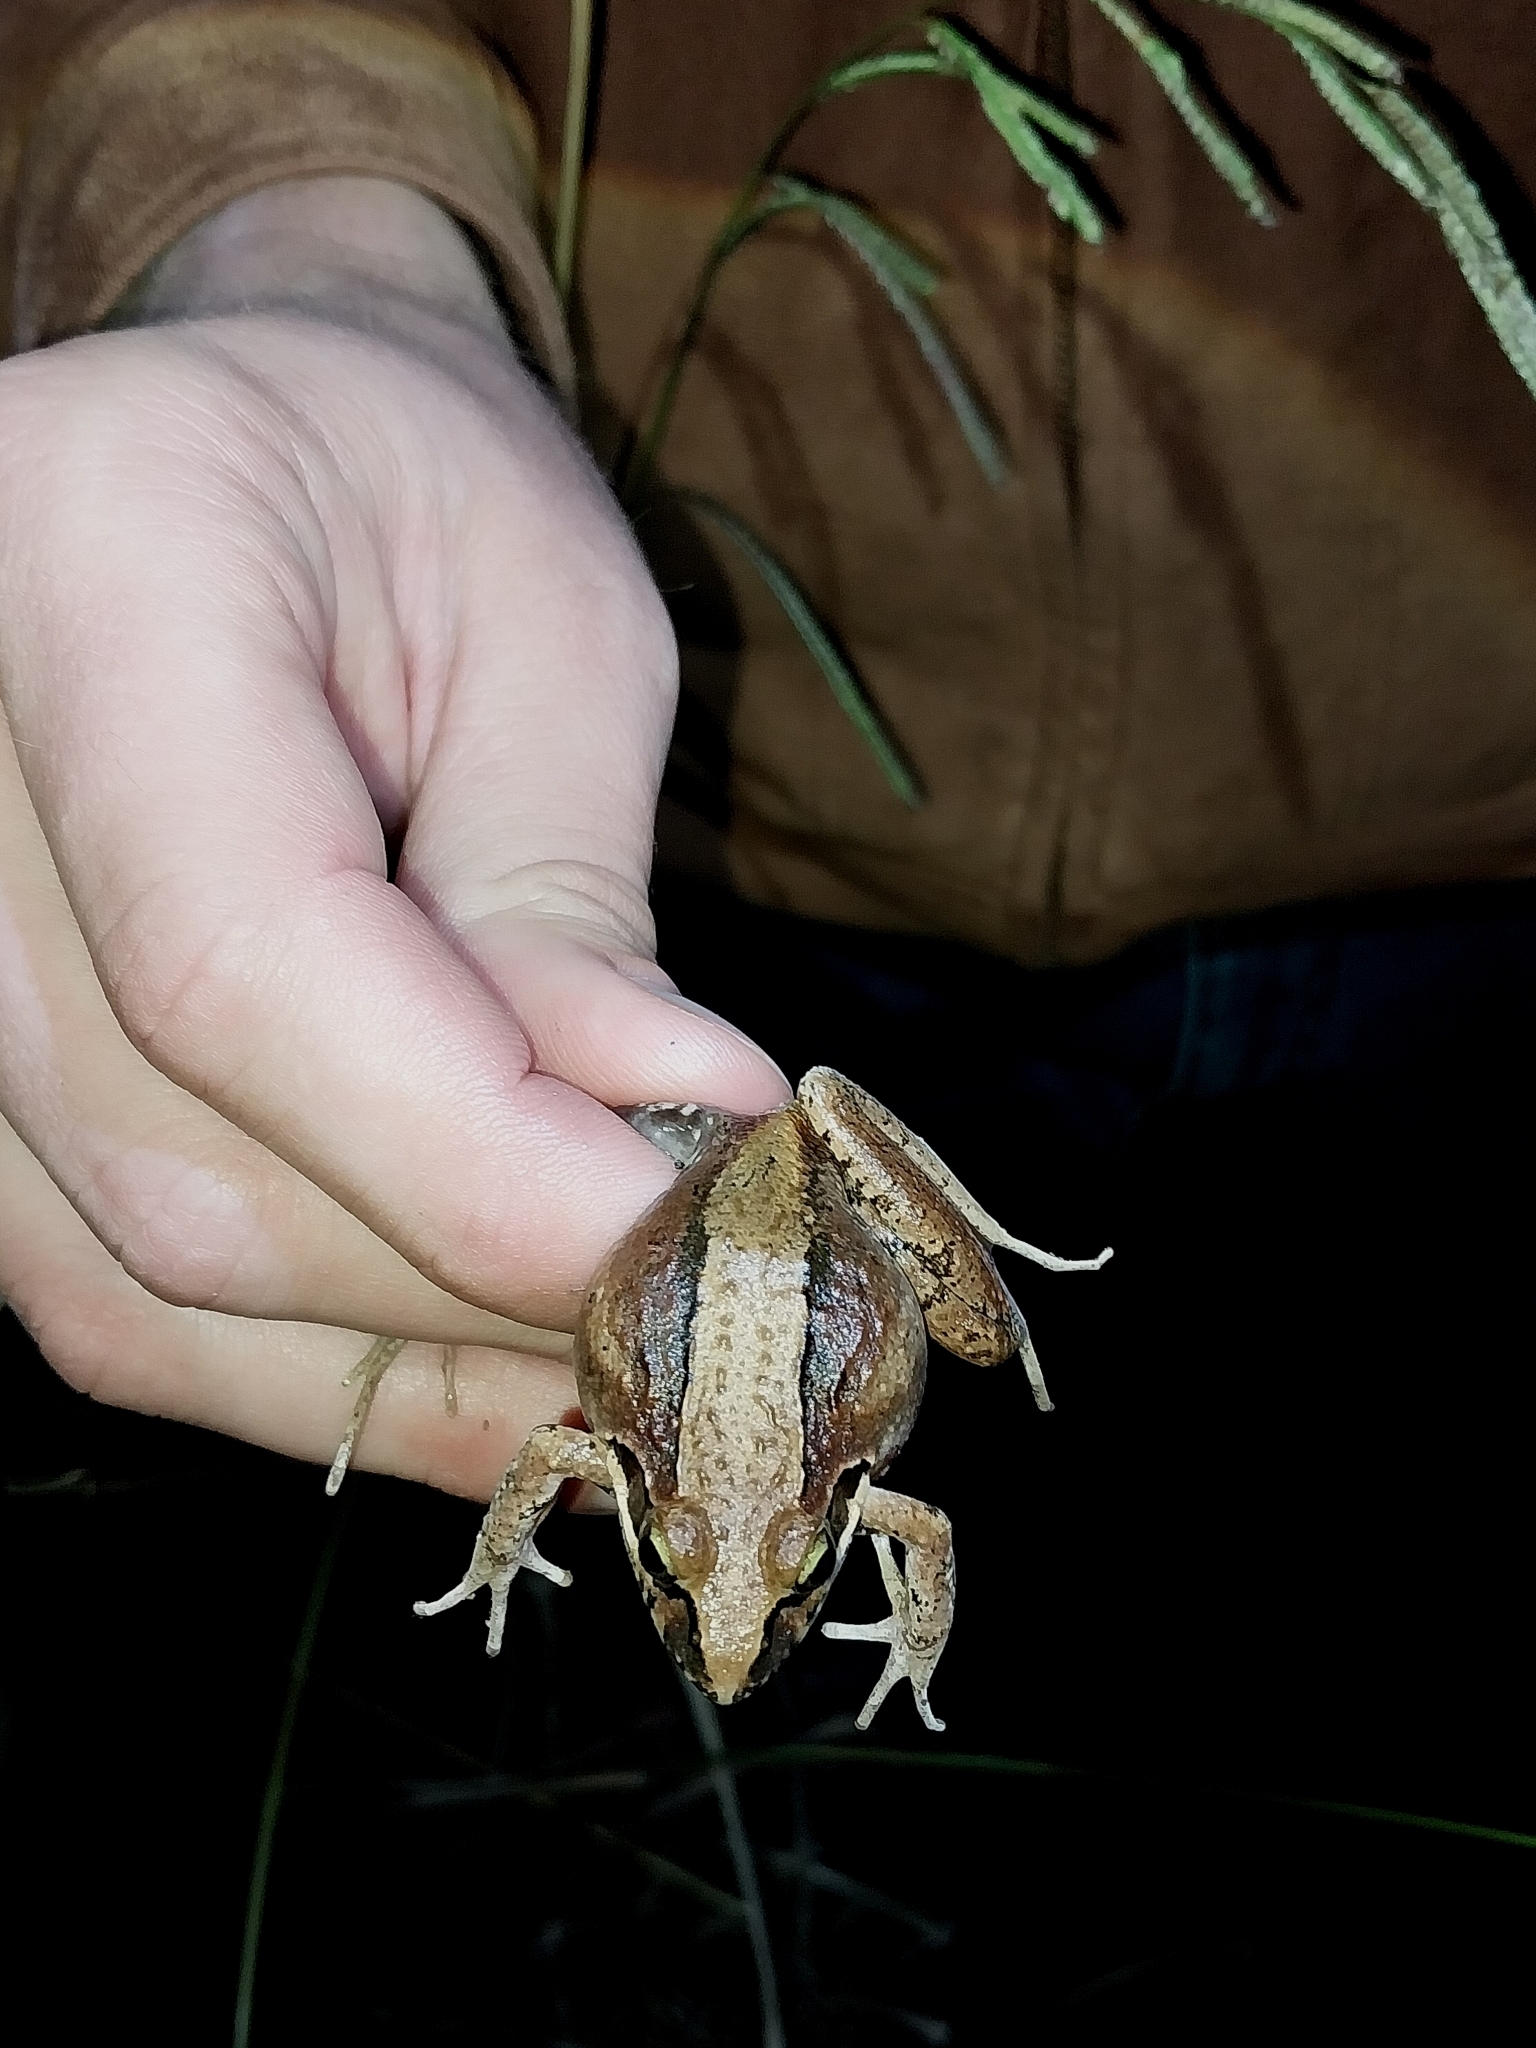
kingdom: Animalia
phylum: Chordata
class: Amphibia
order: Anura
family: Pyxicephalidae
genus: Strongylopus
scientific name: Strongylopus grayii
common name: Gray's stream frog
